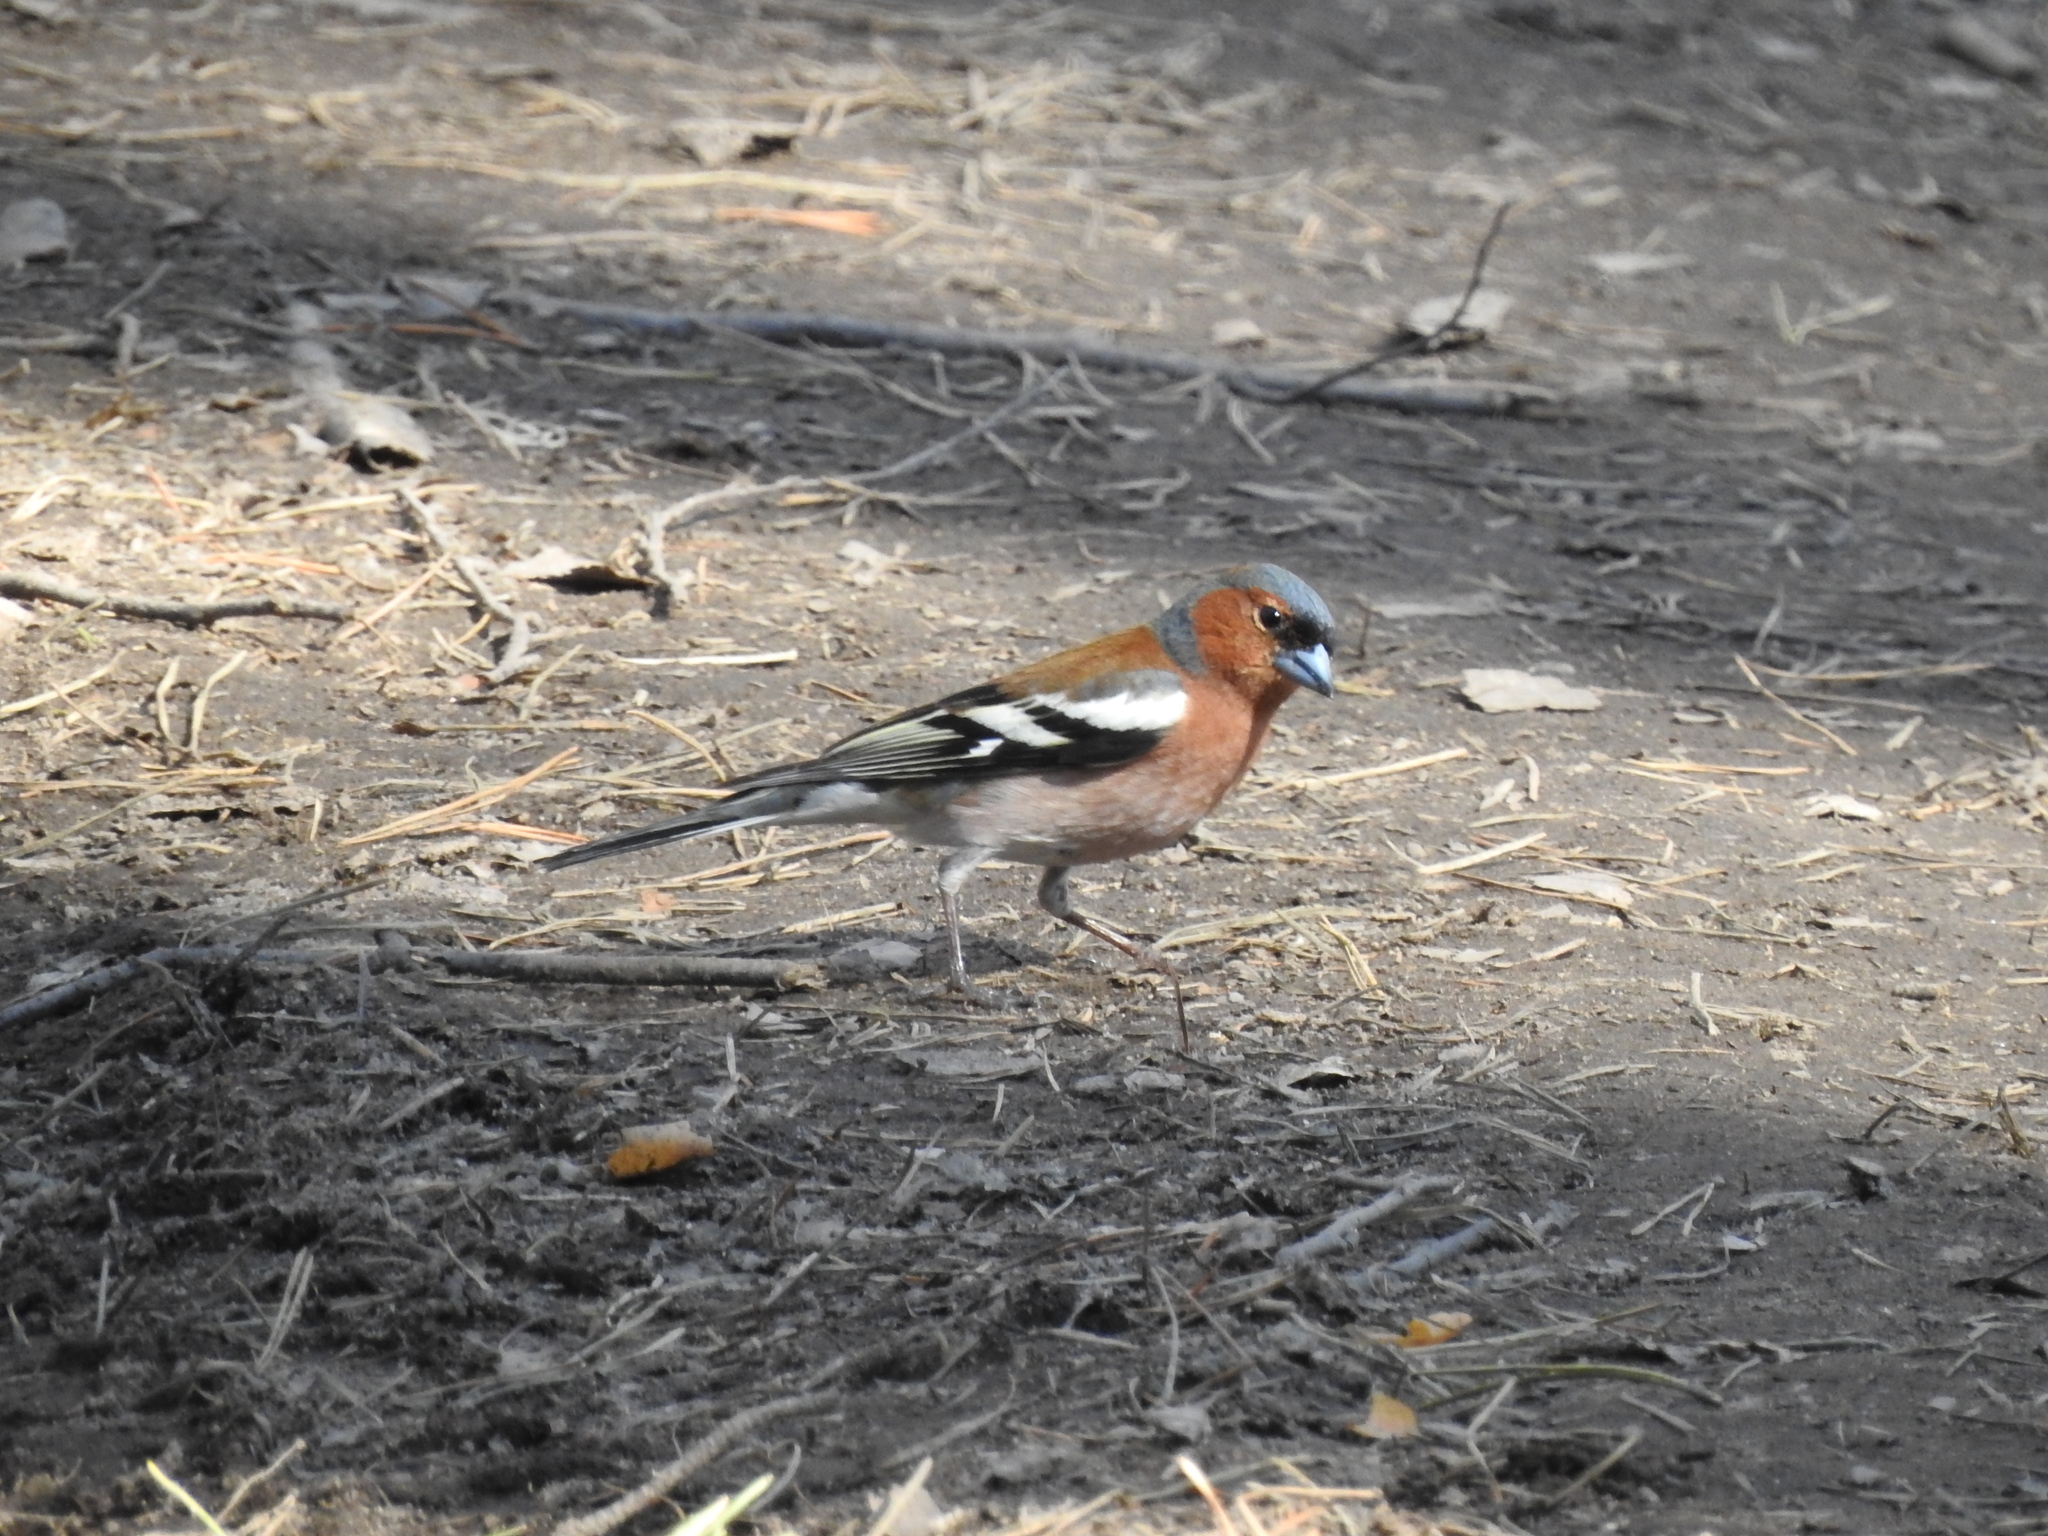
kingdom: Animalia
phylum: Chordata
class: Aves
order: Passeriformes
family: Fringillidae
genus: Fringilla
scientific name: Fringilla coelebs
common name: Common chaffinch
